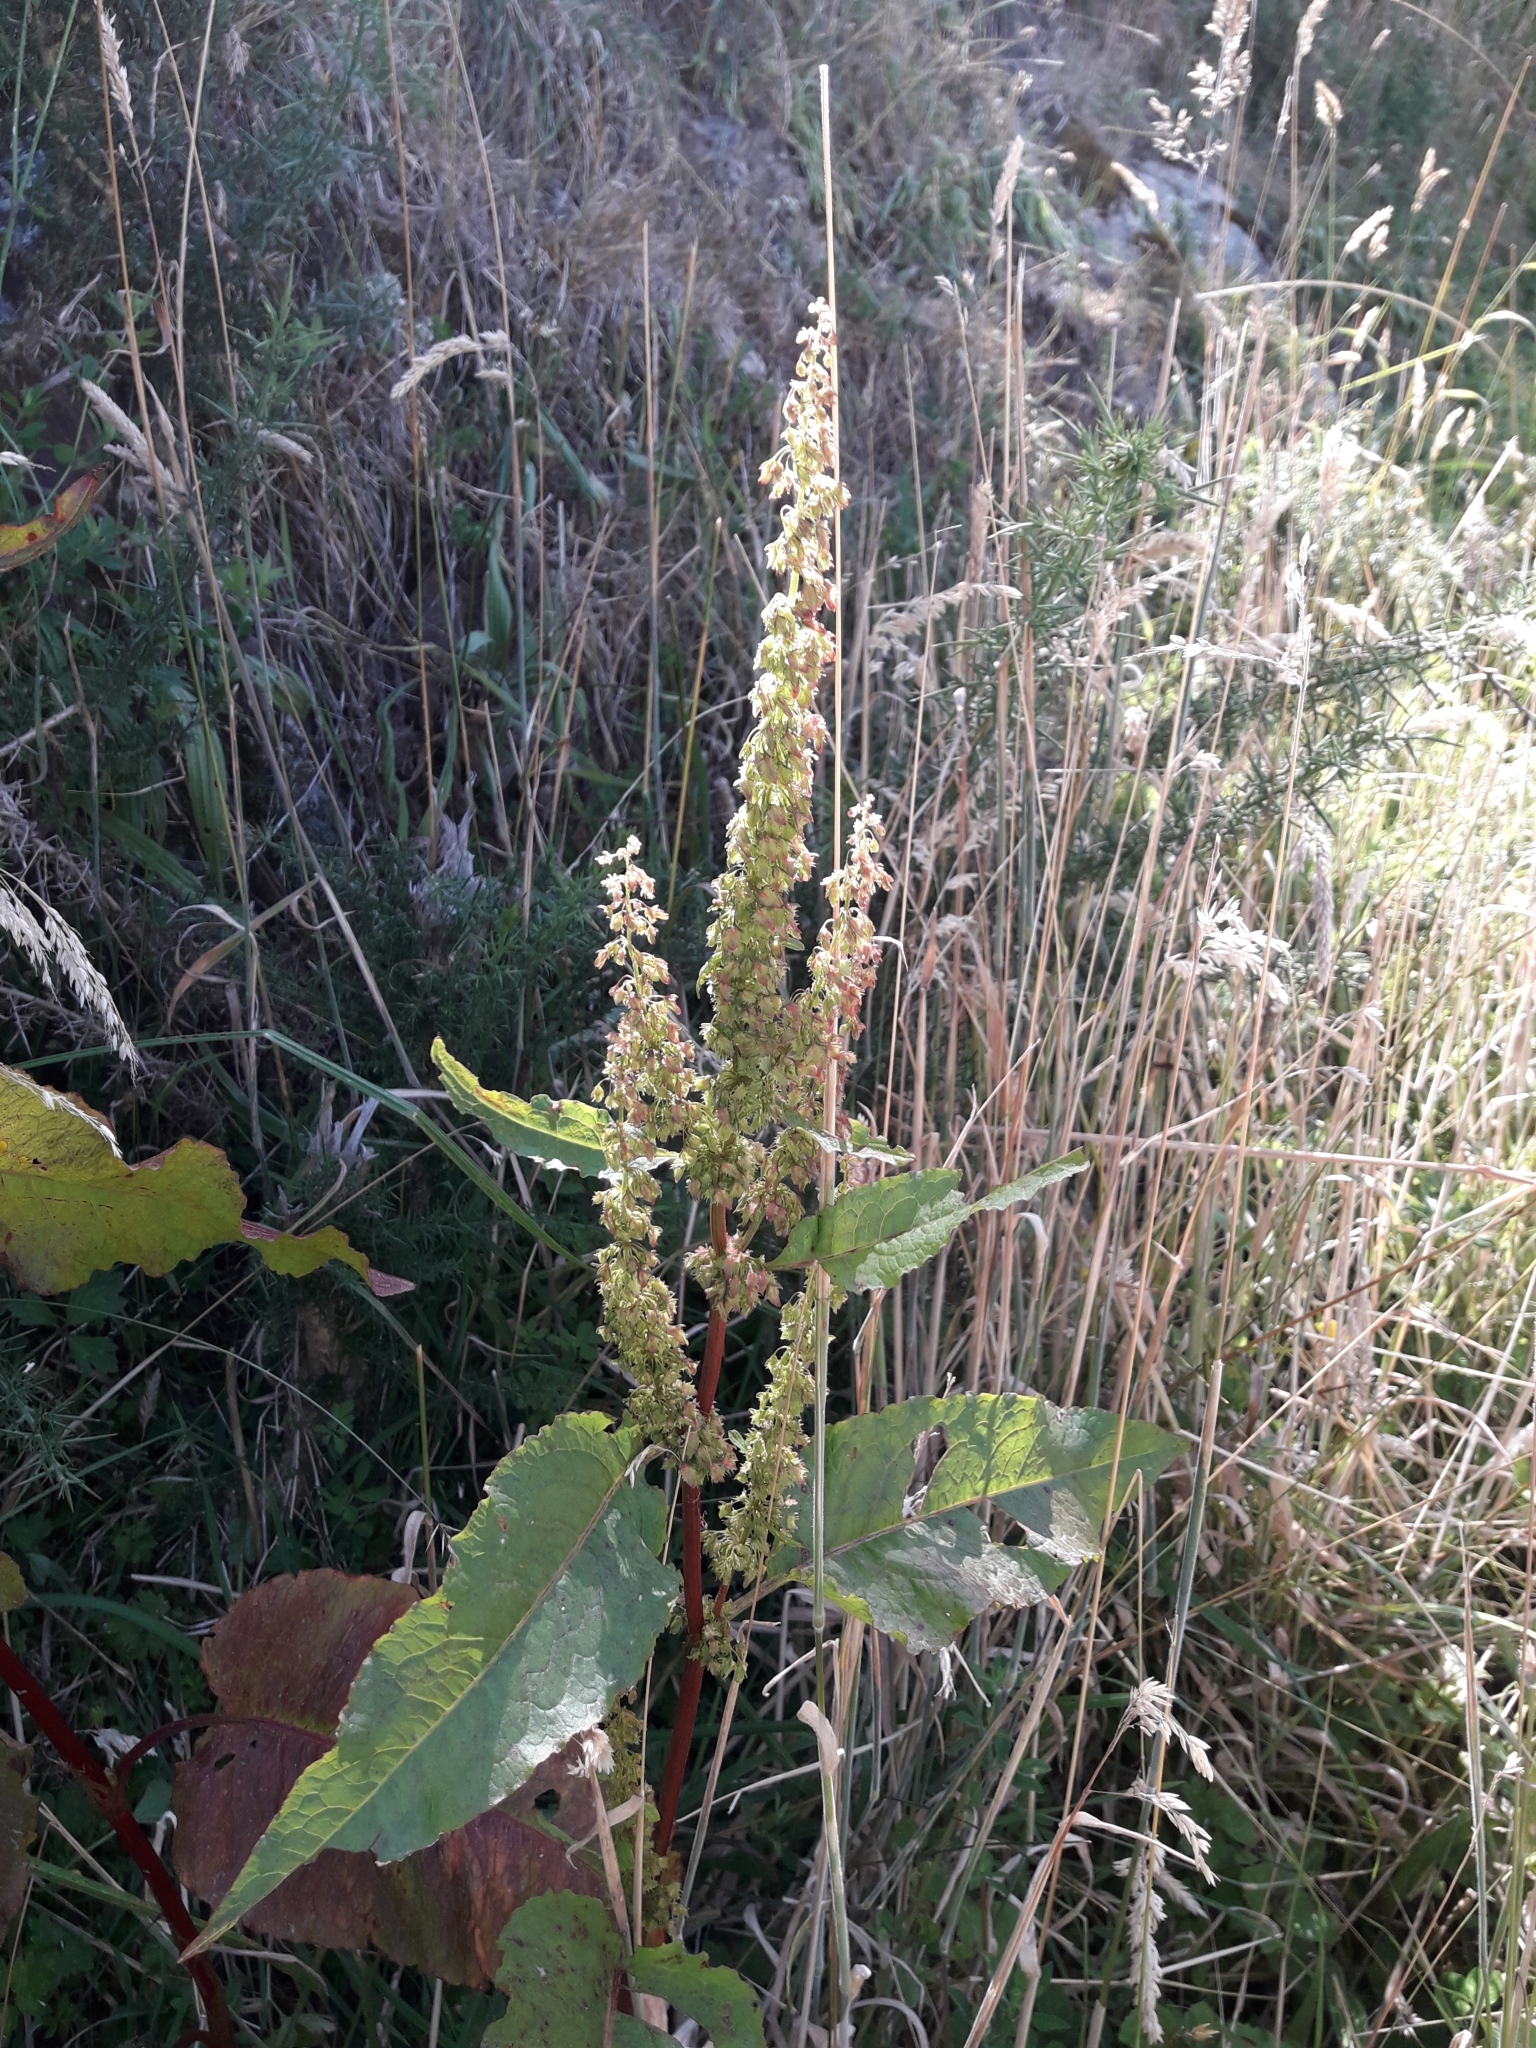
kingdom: Plantae
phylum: Tracheophyta
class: Magnoliopsida
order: Caryophyllales
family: Polygonaceae
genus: Rumex
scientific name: Rumex obtusifolius
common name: Bitter dock
